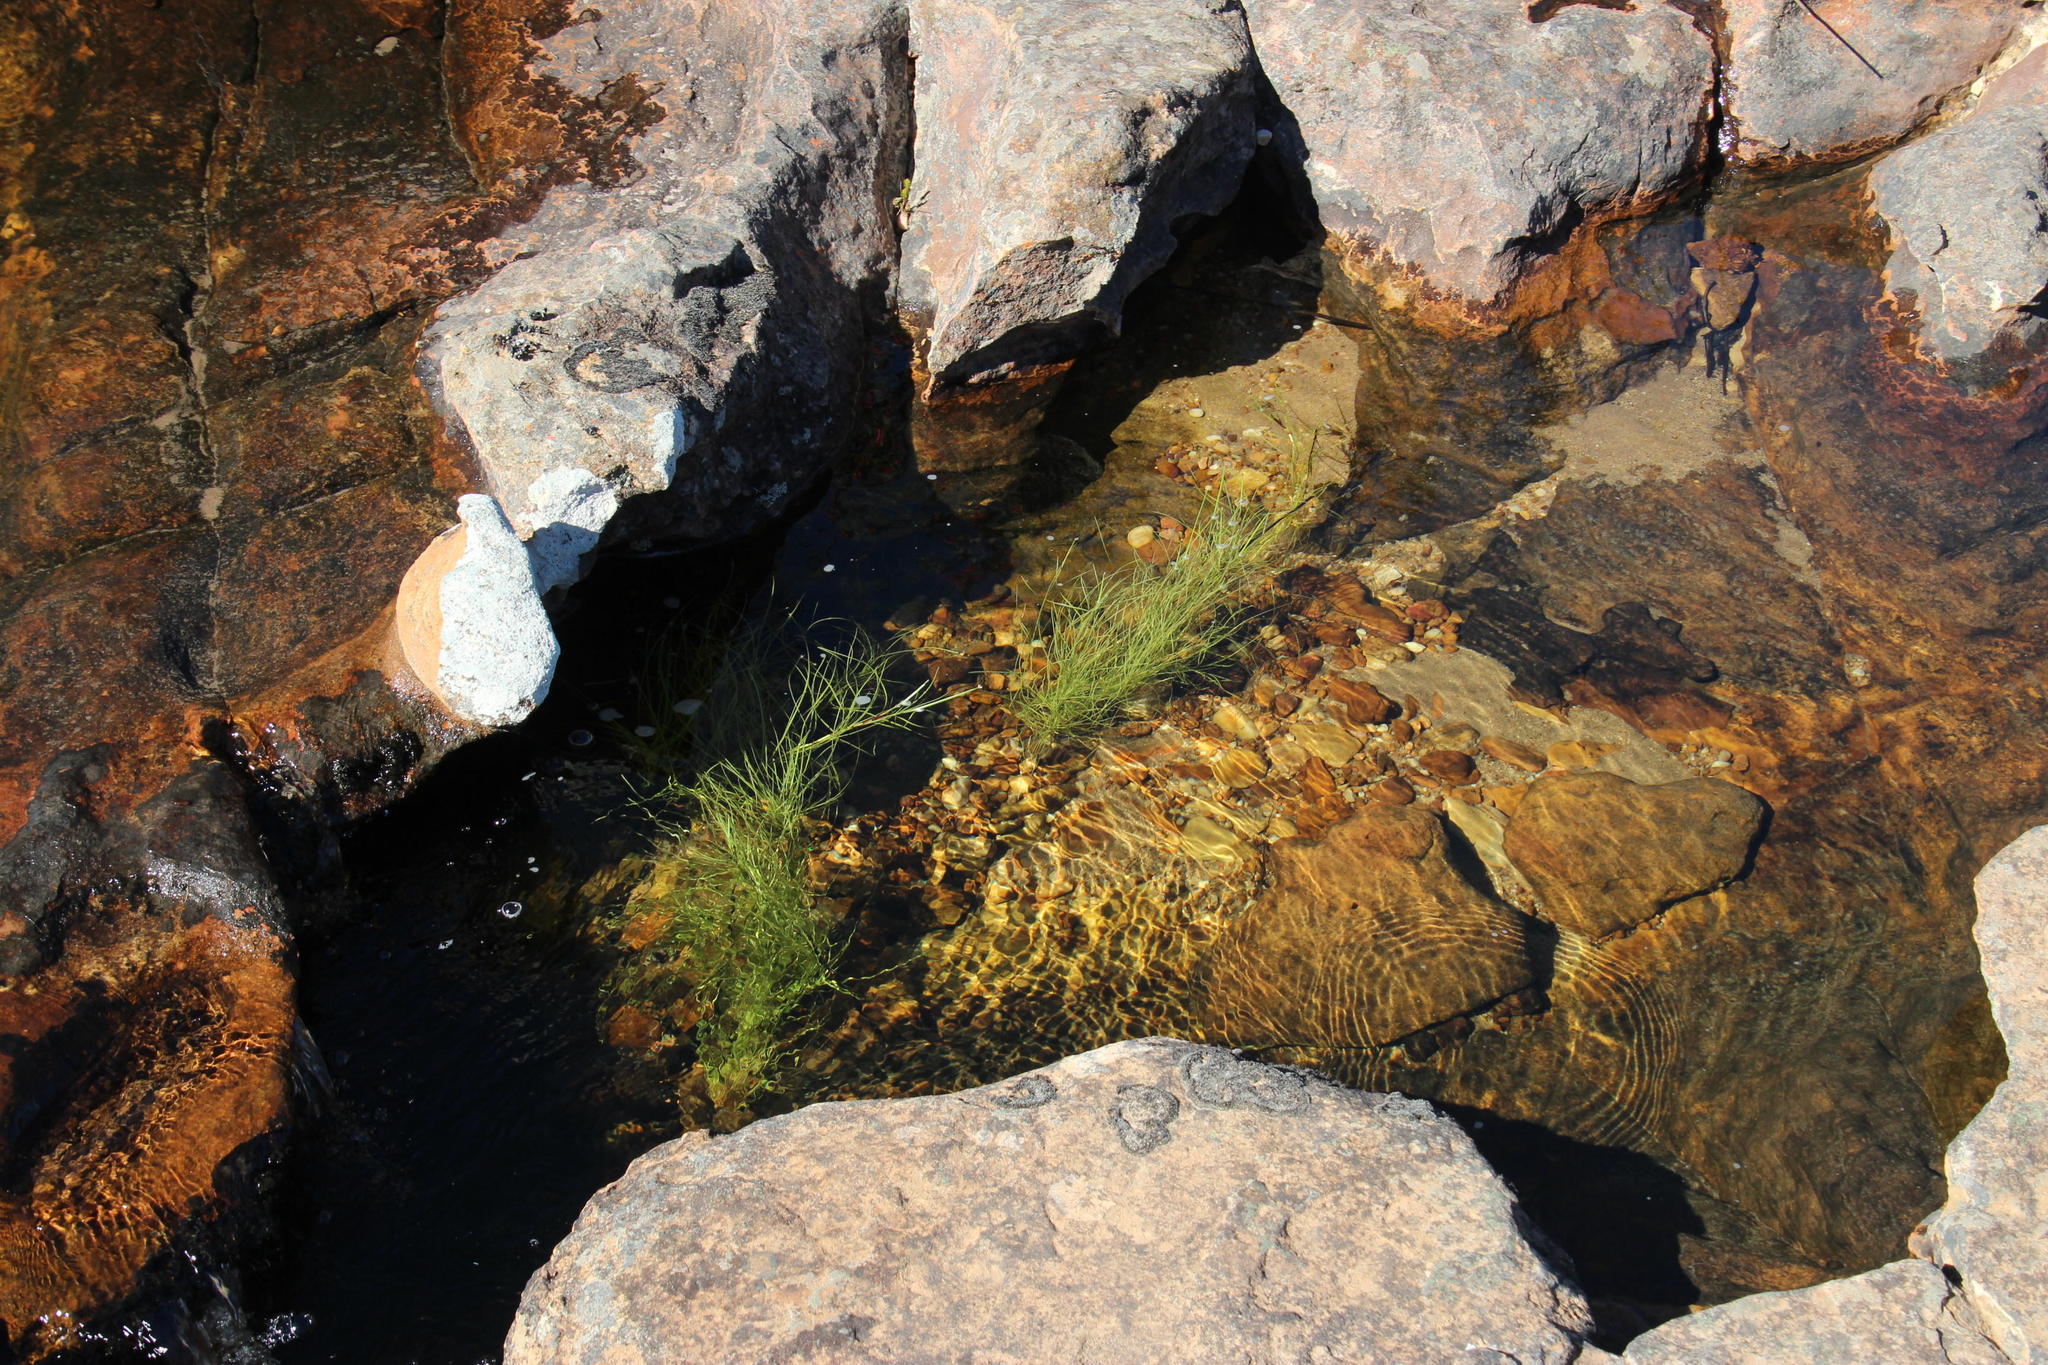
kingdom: Plantae
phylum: Tracheophyta
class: Liliopsida
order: Poales
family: Cyperaceae
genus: Isolepis
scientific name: Isolepis striata
